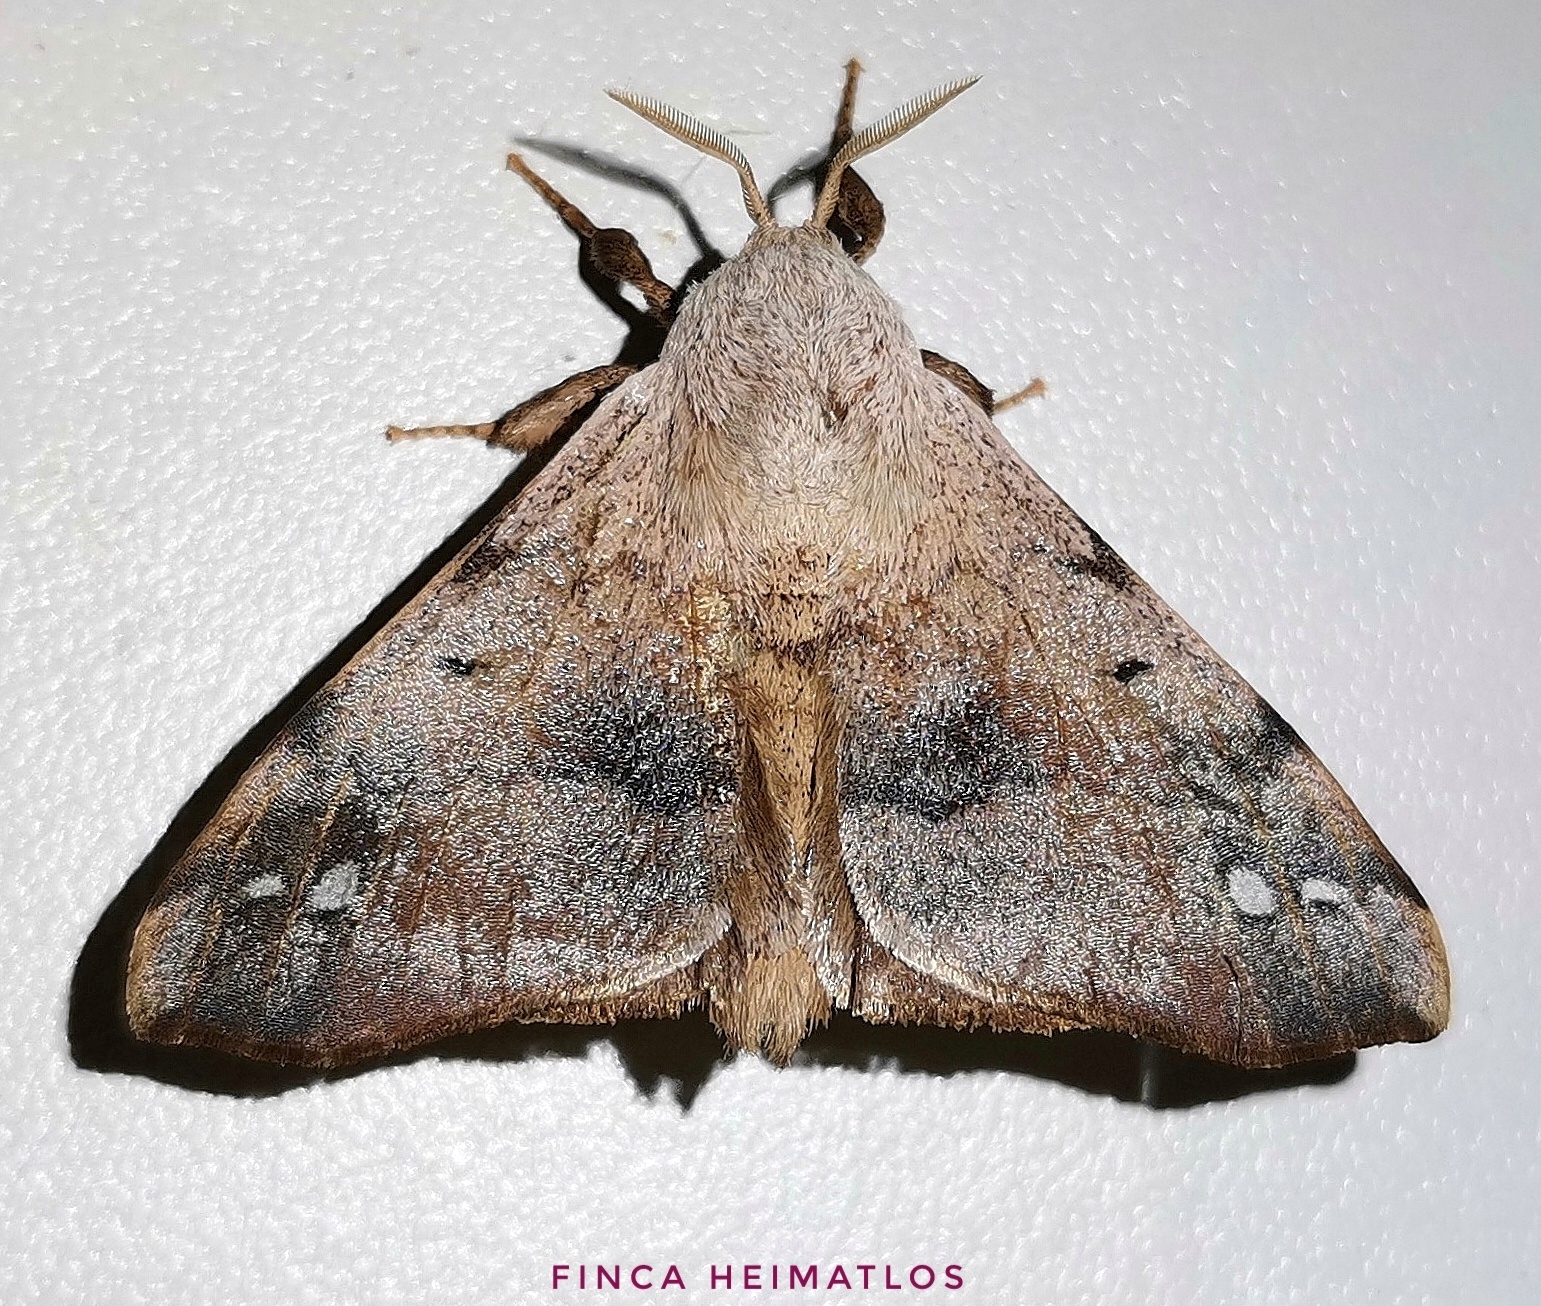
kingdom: Animalia
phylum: Arthropoda
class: Insecta
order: Lepidoptera
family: Apatelodidae
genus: Hygrochroa
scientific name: Hygrochroa Apatelodes anna
